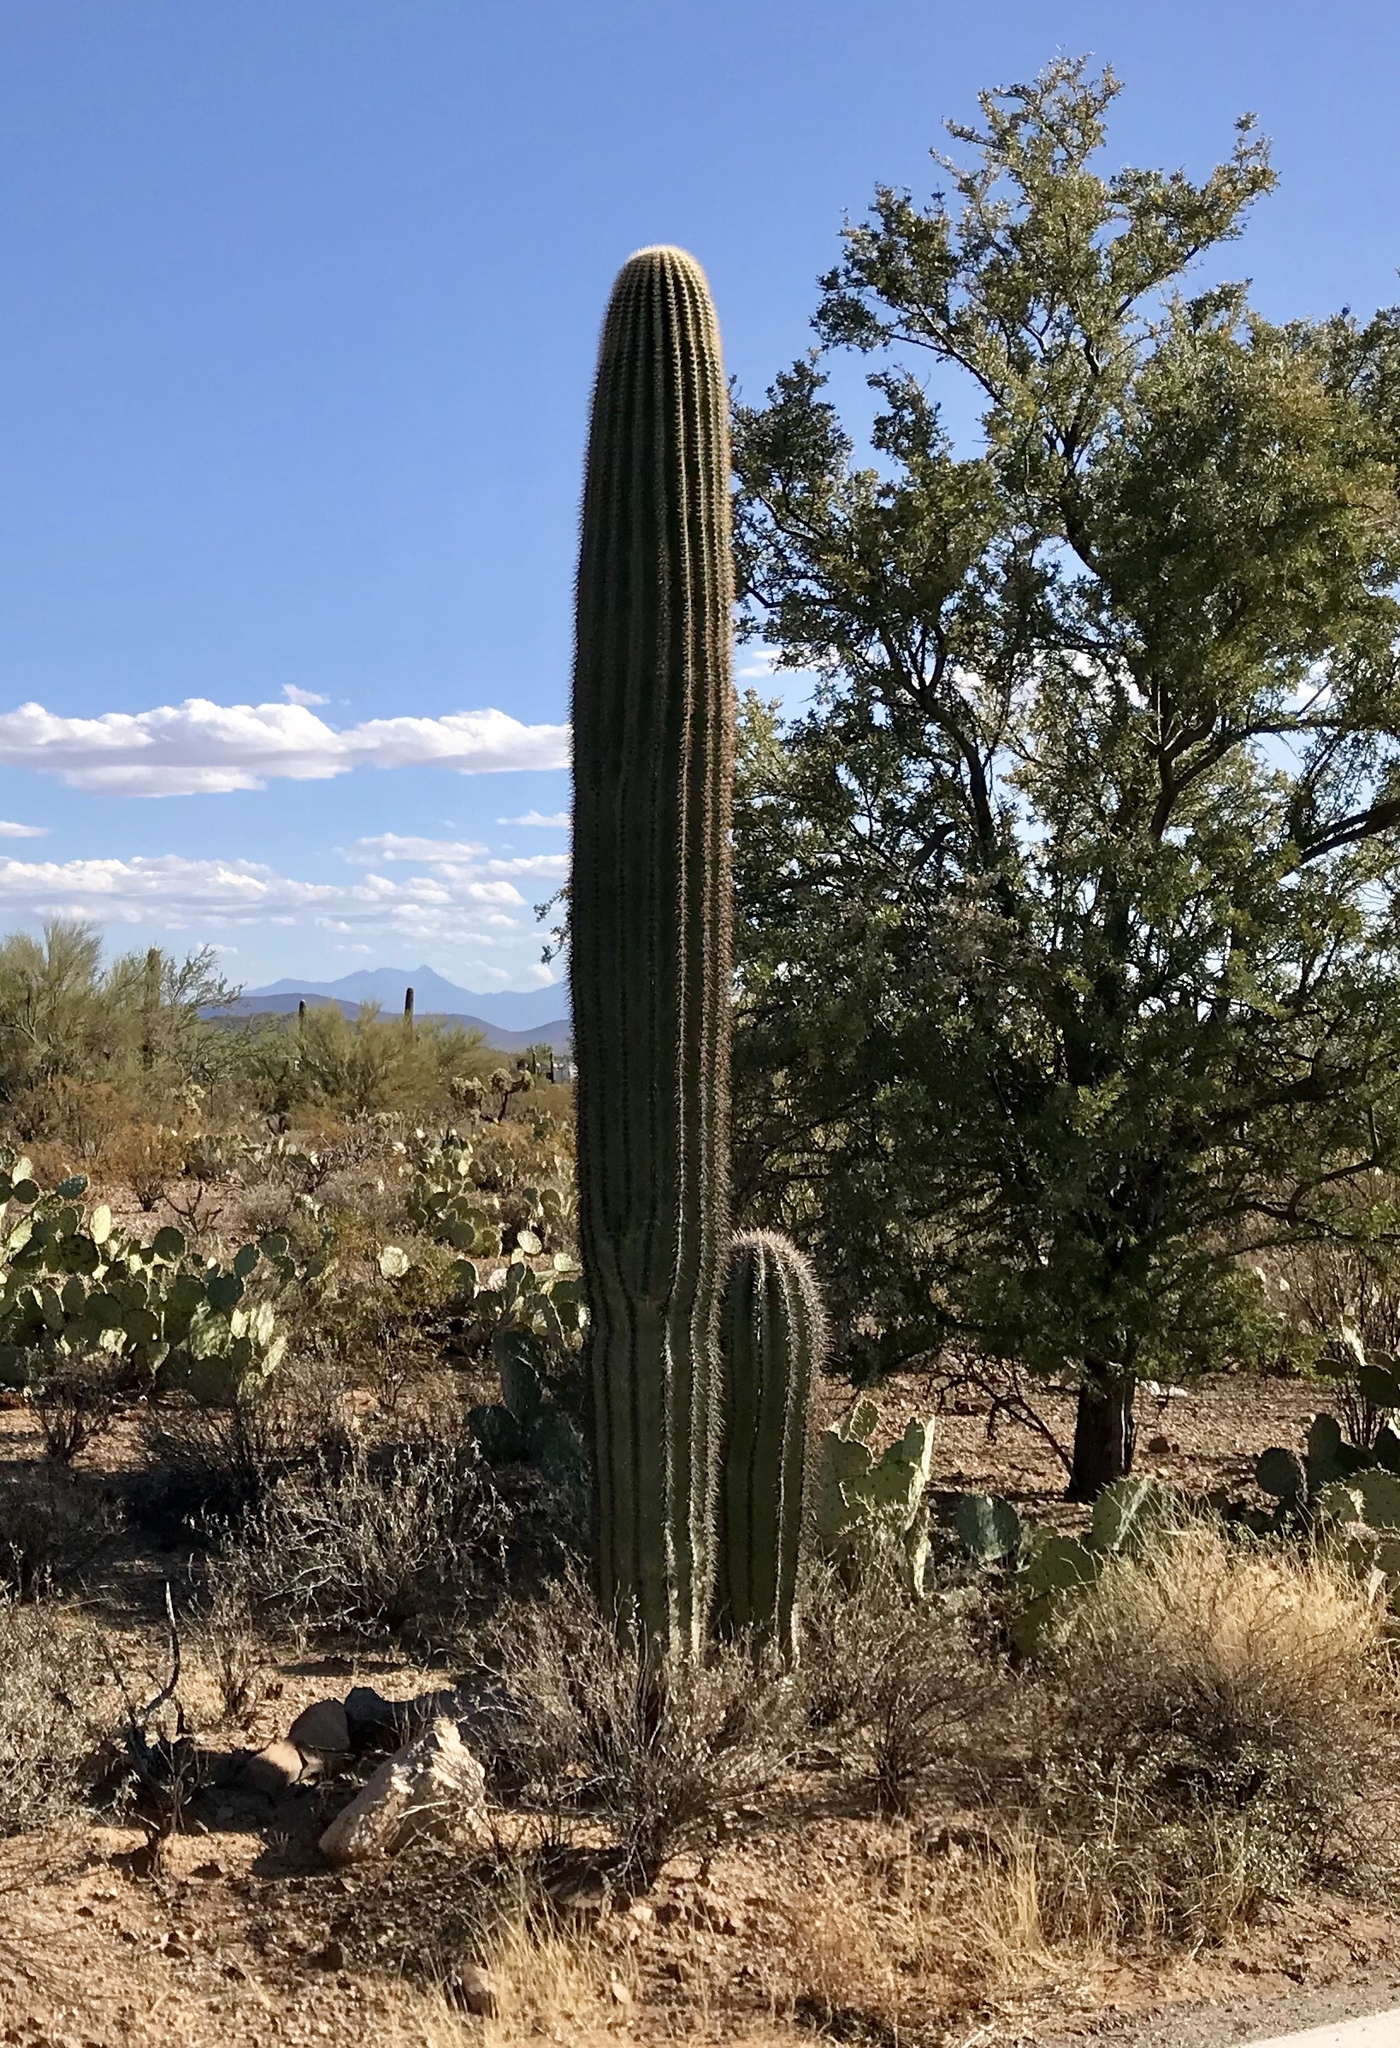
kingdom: Plantae
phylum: Tracheophyta
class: Magnoliopsida
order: Caryophyllales
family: Cactaceae
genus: Carnegiea
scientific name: Carnegiea gigantea
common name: Saguaro
